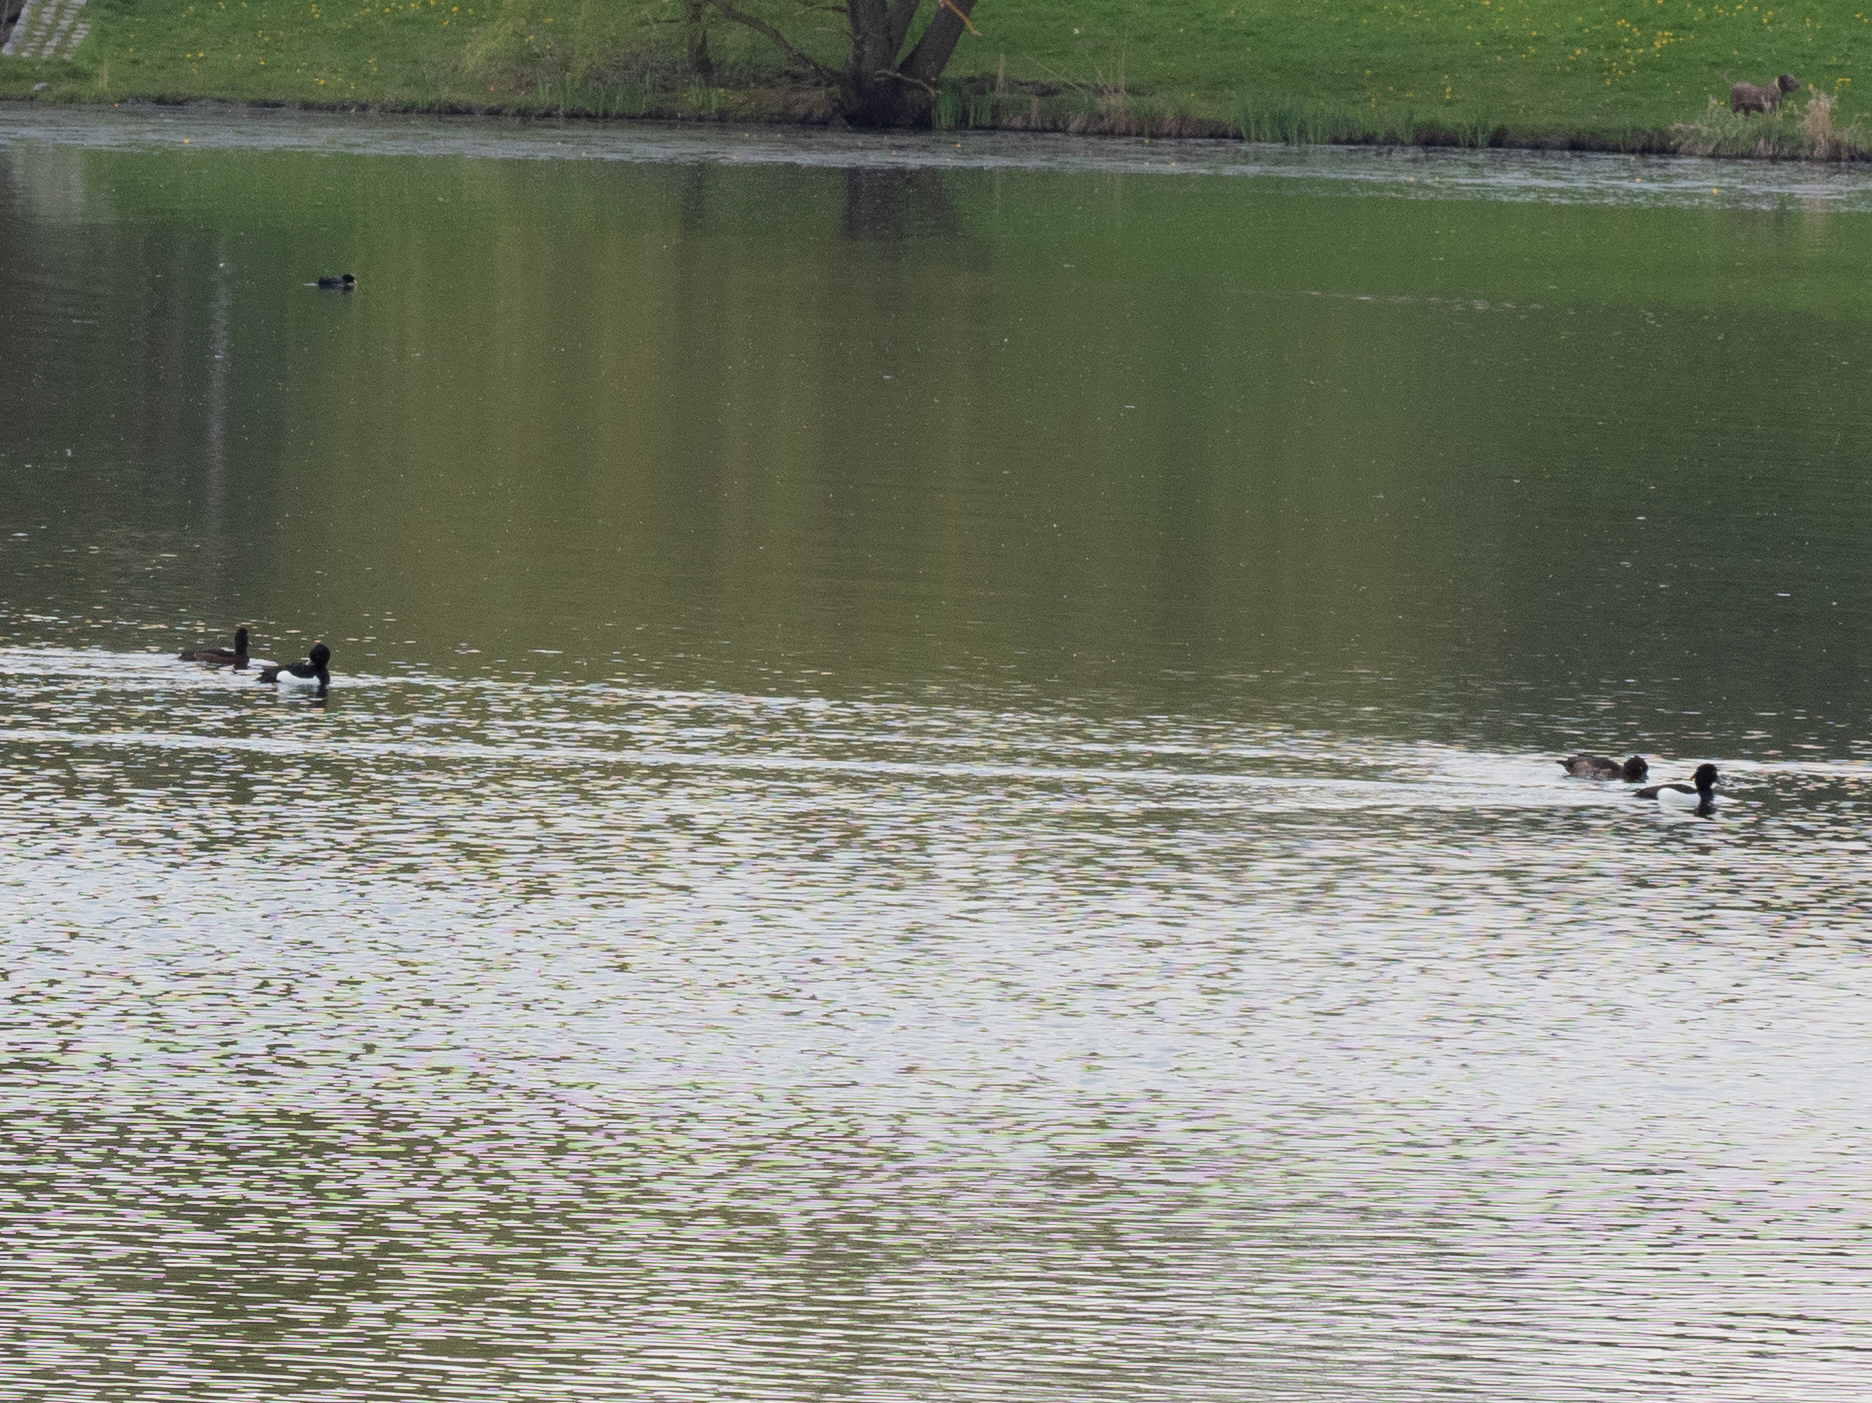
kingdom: Animalia
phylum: Chordata
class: Aves
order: Anseriformes
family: Anatidae
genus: Aythya
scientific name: Aythya fuligula
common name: Tufted duck
